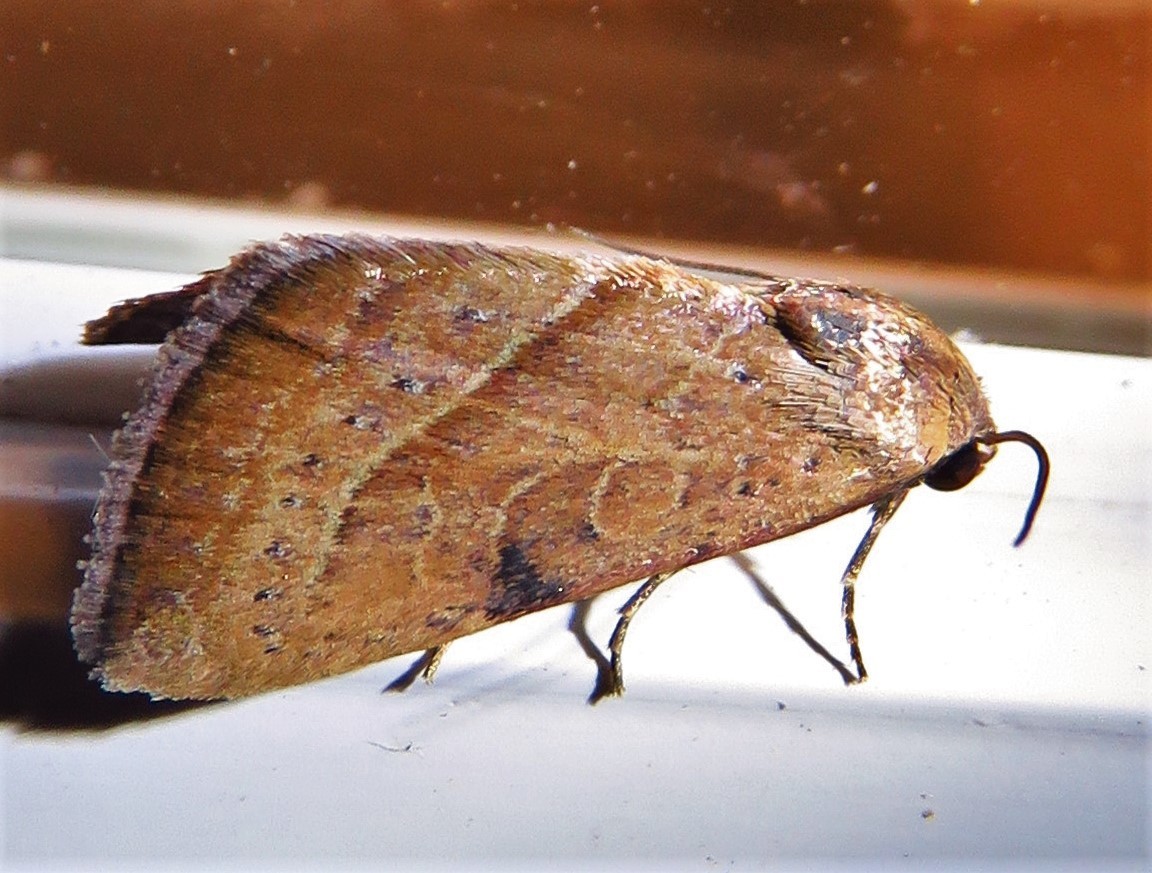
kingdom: Animalia
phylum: Arthropoda
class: Insecta
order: Lepidoptera
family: Noctuidae
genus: Galgula
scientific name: Galgula partita
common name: Wedgeling
